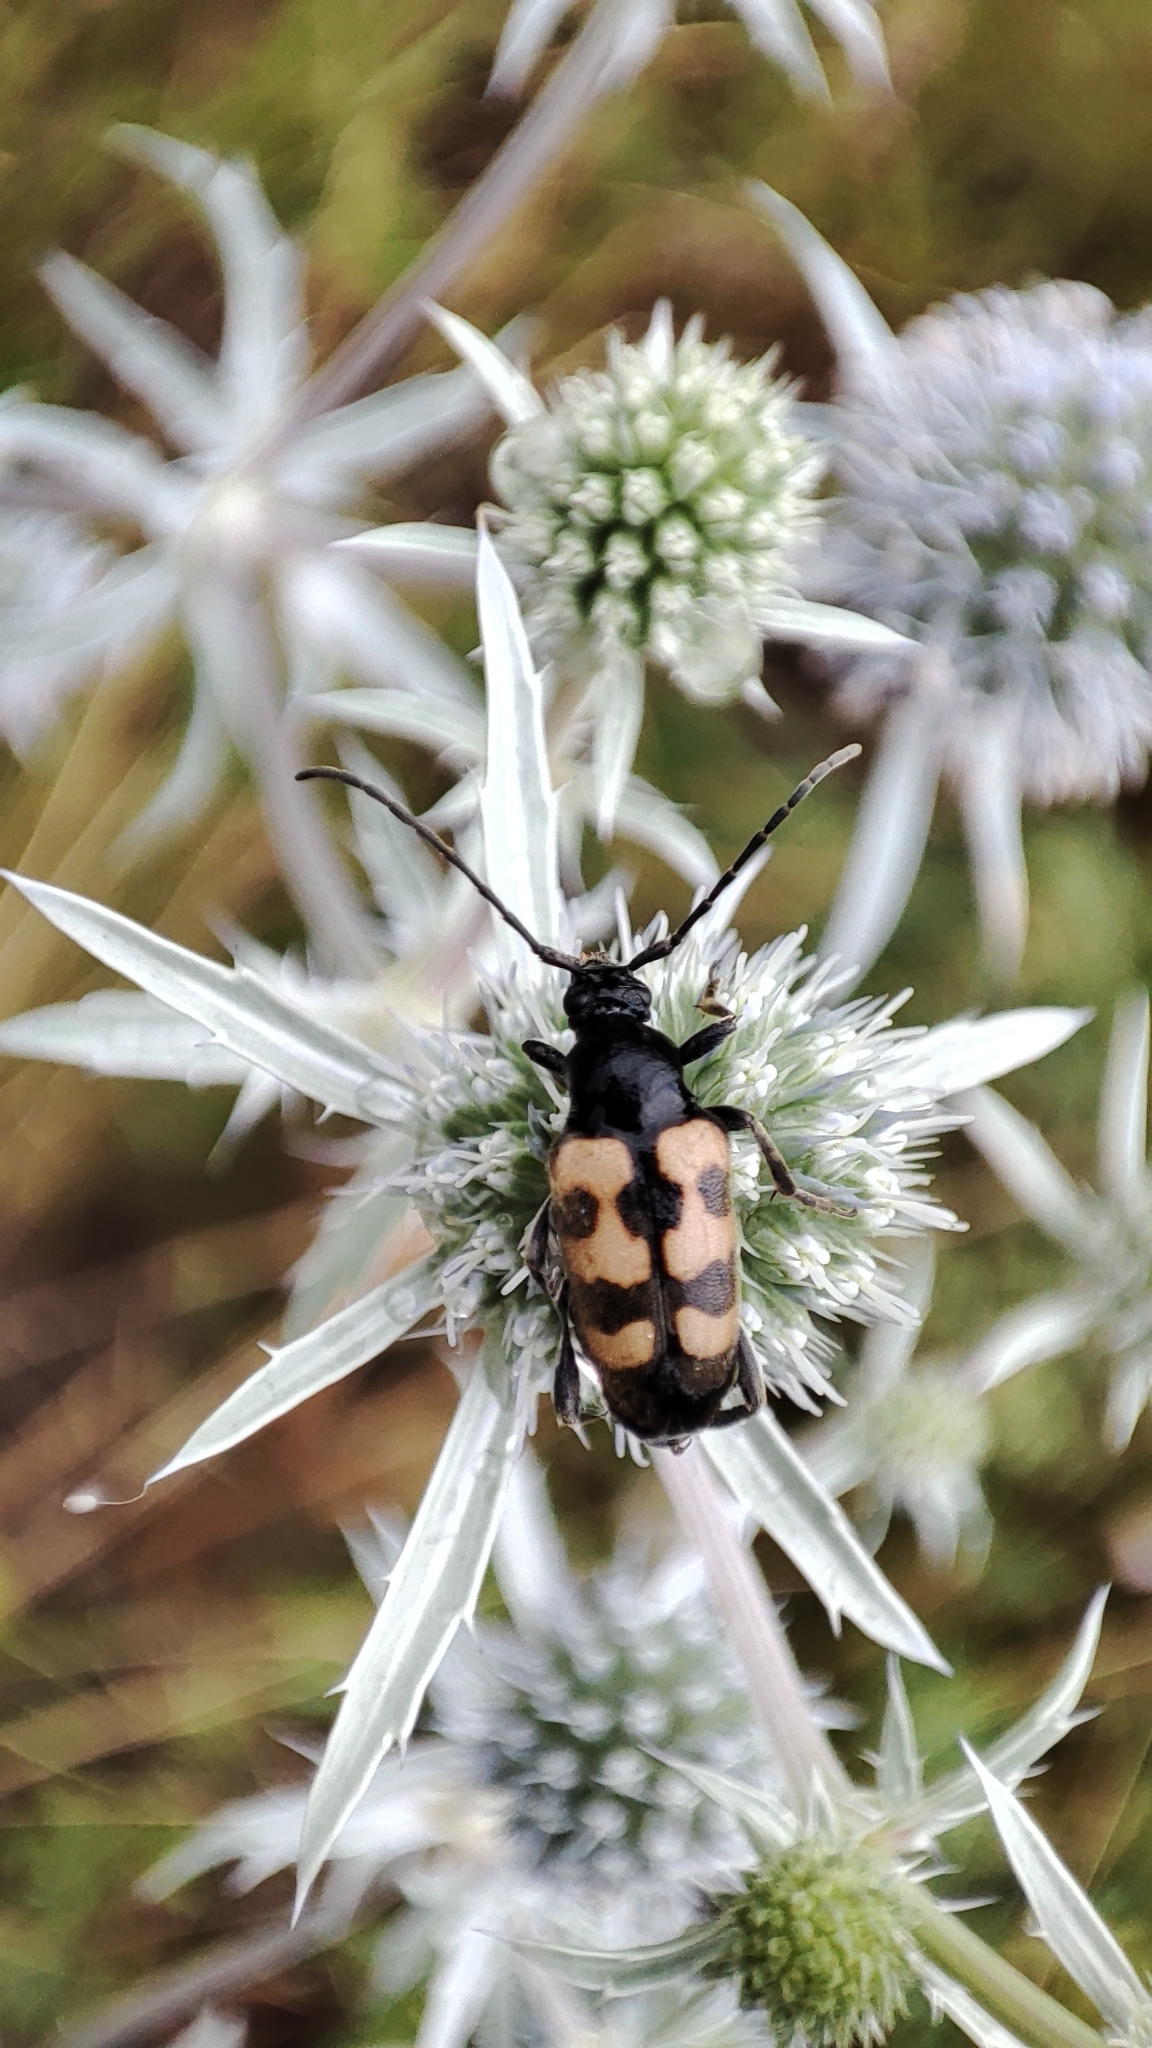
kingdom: Animalia
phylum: Arthropoda
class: Insecta
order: Coleoptera
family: Cerambycidae
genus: Pachytodes
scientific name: Pachytodes
